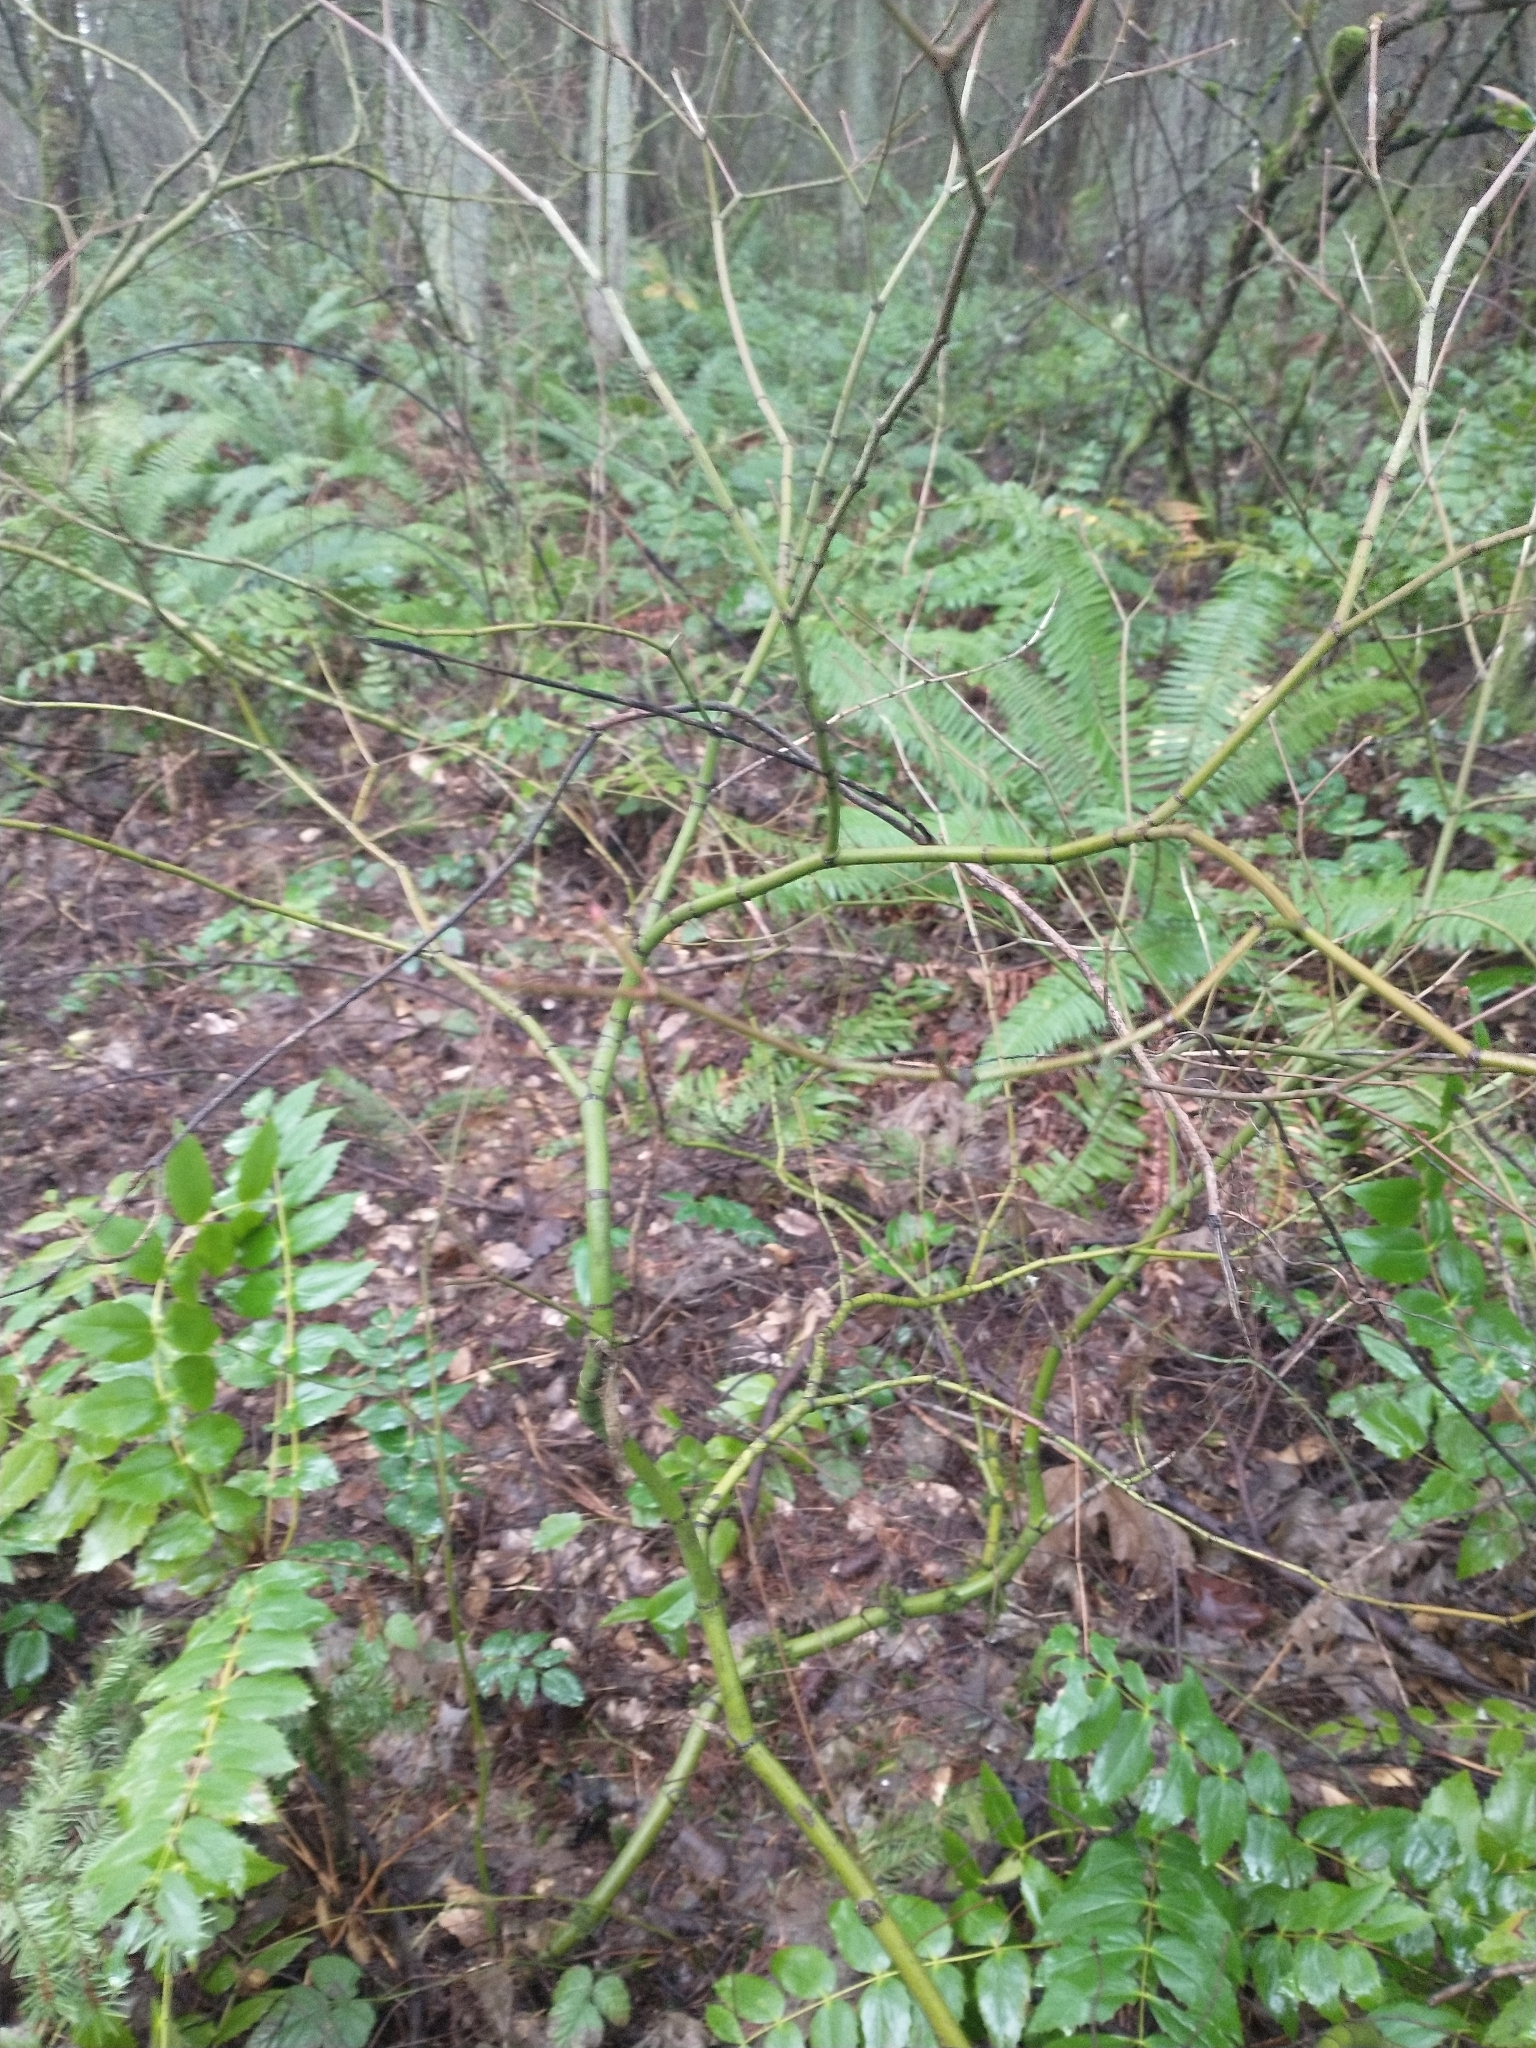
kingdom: Plantae
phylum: Tracheophyta
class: Magnoliopsida
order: Sapindales
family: Sapindaceae
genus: Acer
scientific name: Acer circinatum
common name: Vine maple
